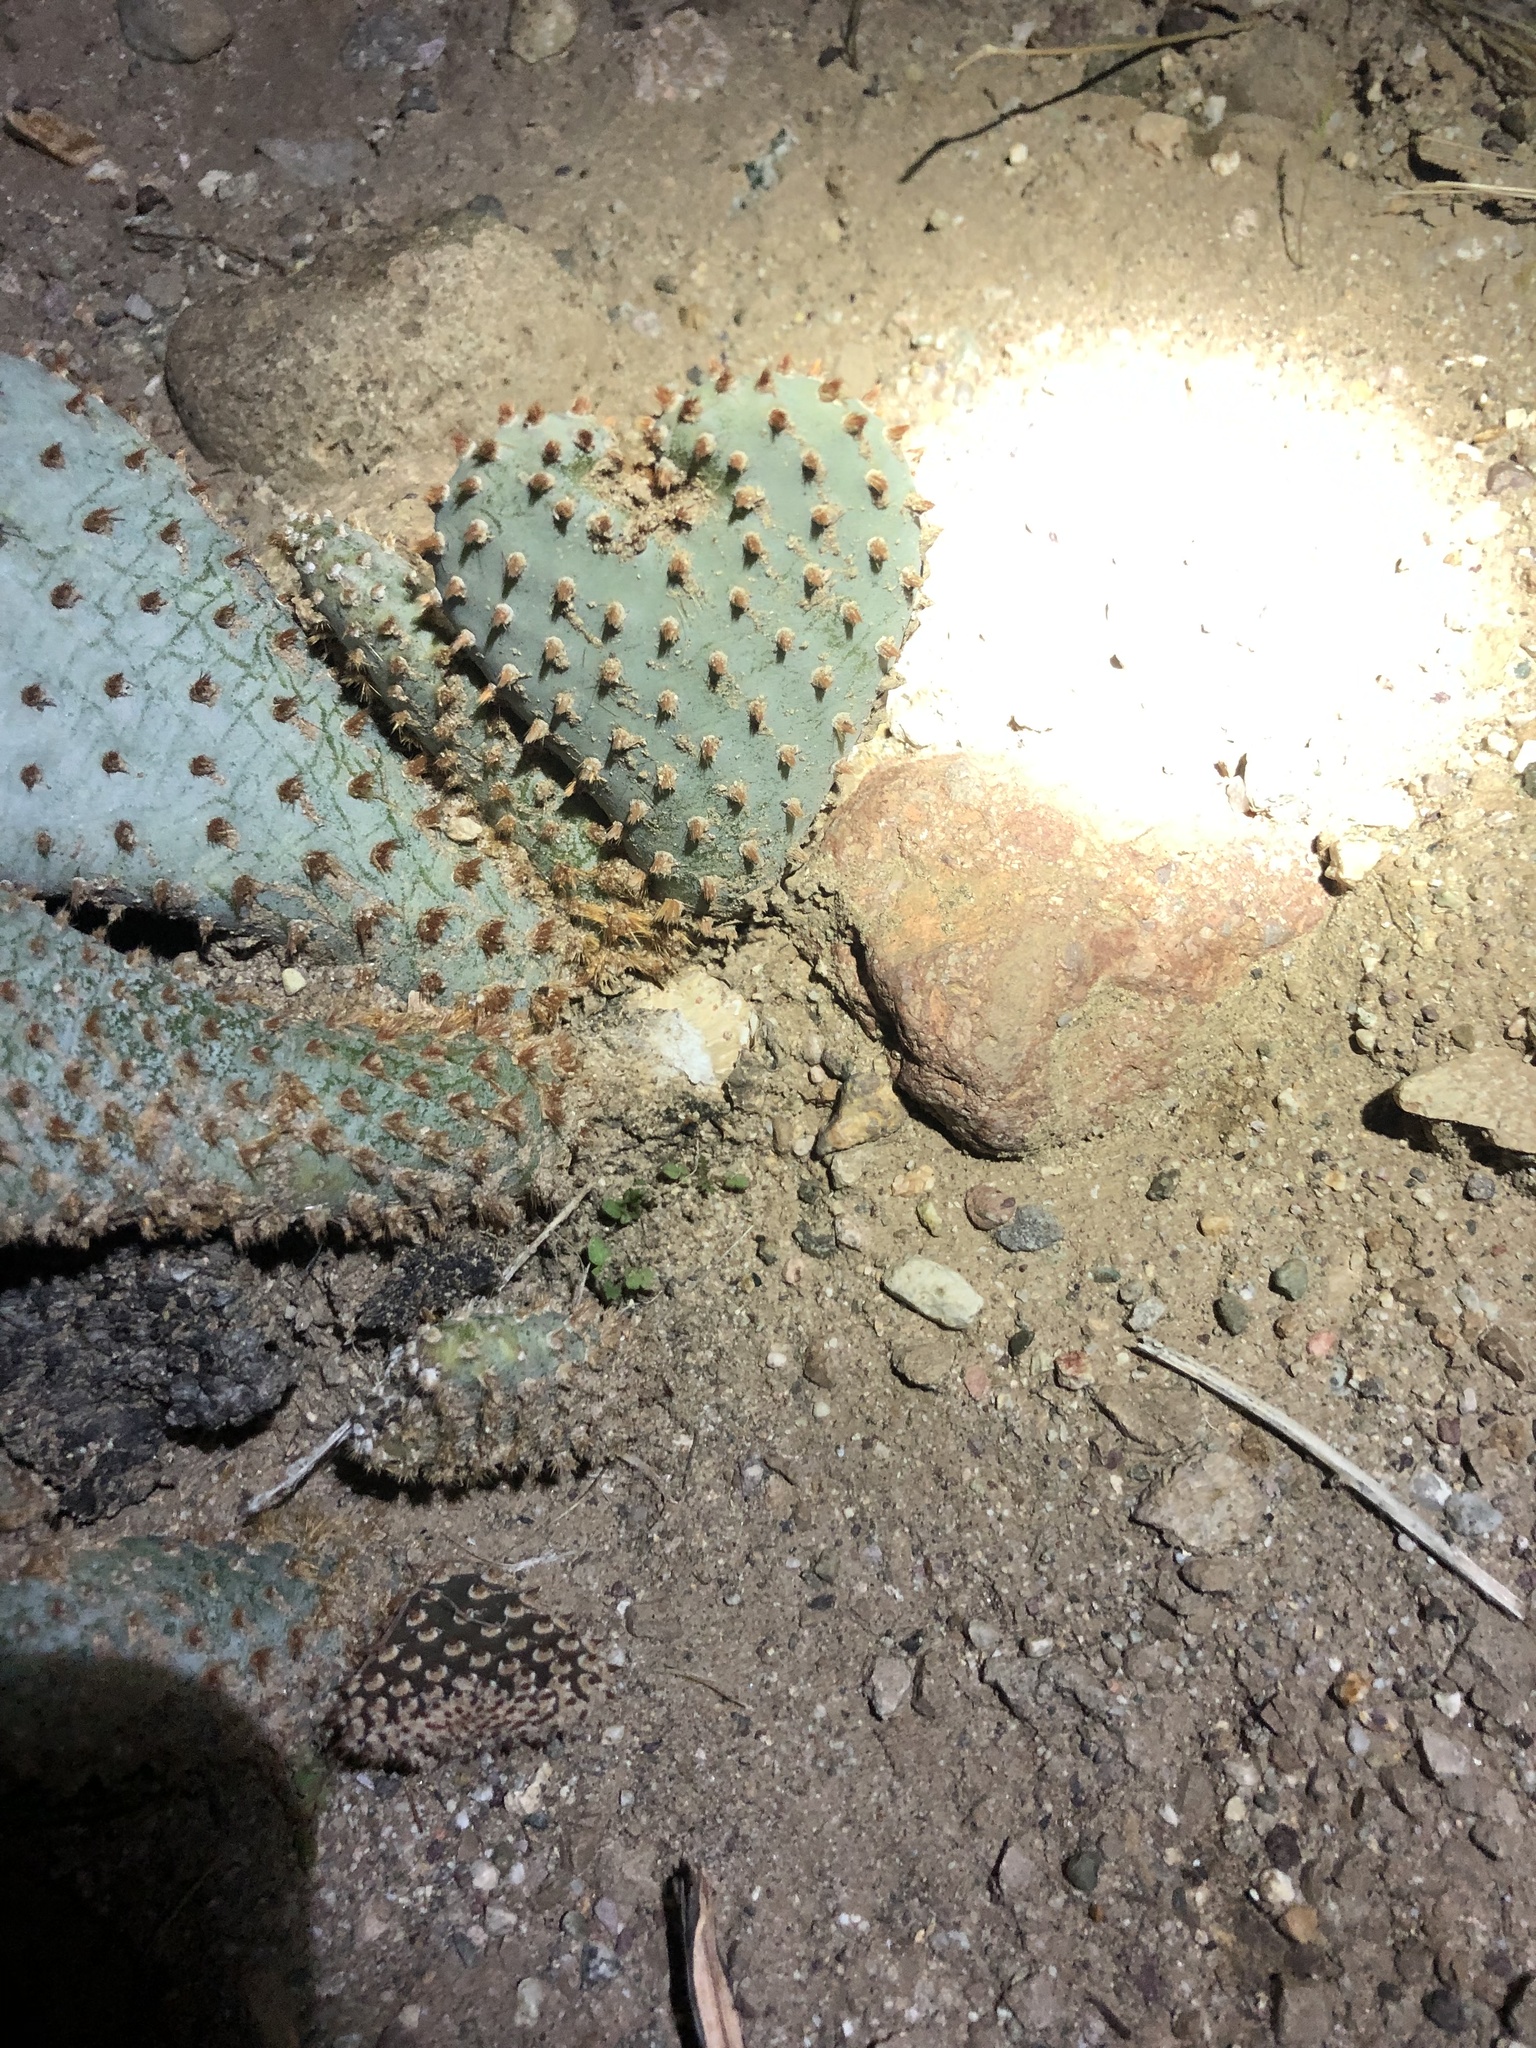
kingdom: Plantae
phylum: Tracheophyta
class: Magnoliopsida
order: Caryophyllales
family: Cactaceae
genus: Opuntia
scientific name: Opuntia basilaris
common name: Beavertail prickly-pear
